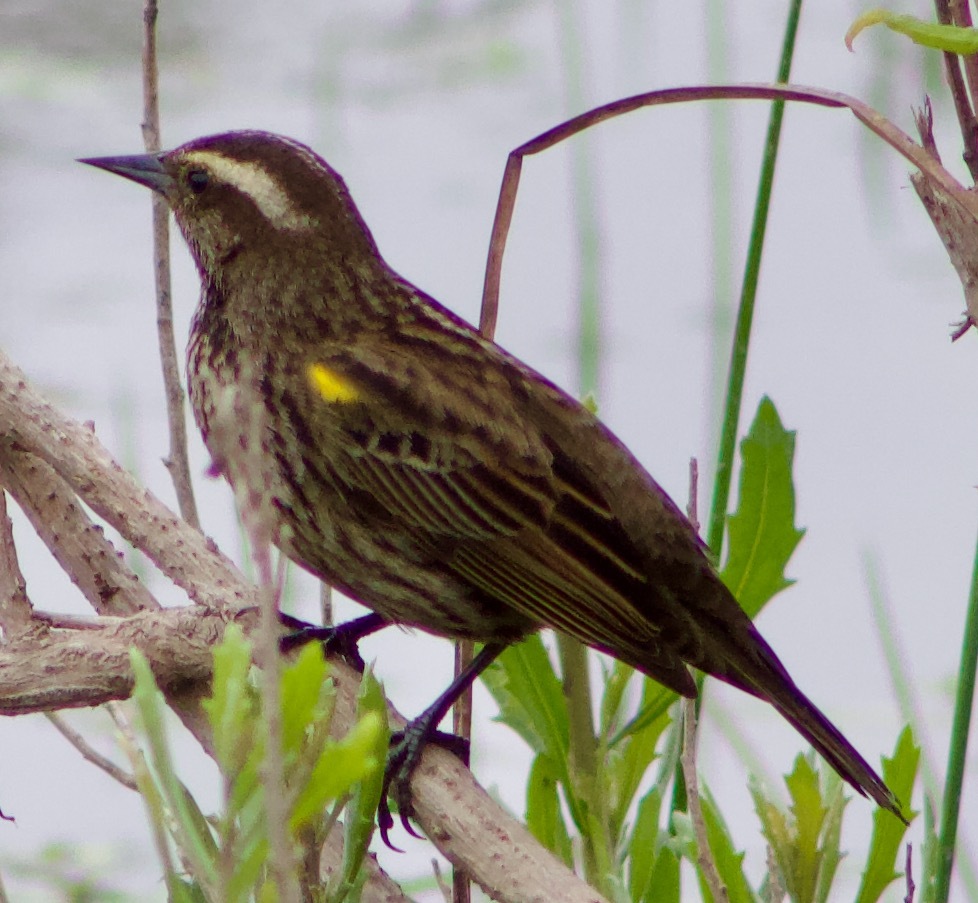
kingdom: Animalia
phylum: Chordata
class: Aves
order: Passeriformes
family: Icteridae
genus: Agelasticus
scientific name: Agelasticus thilius
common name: Yellow-winged blackbird
